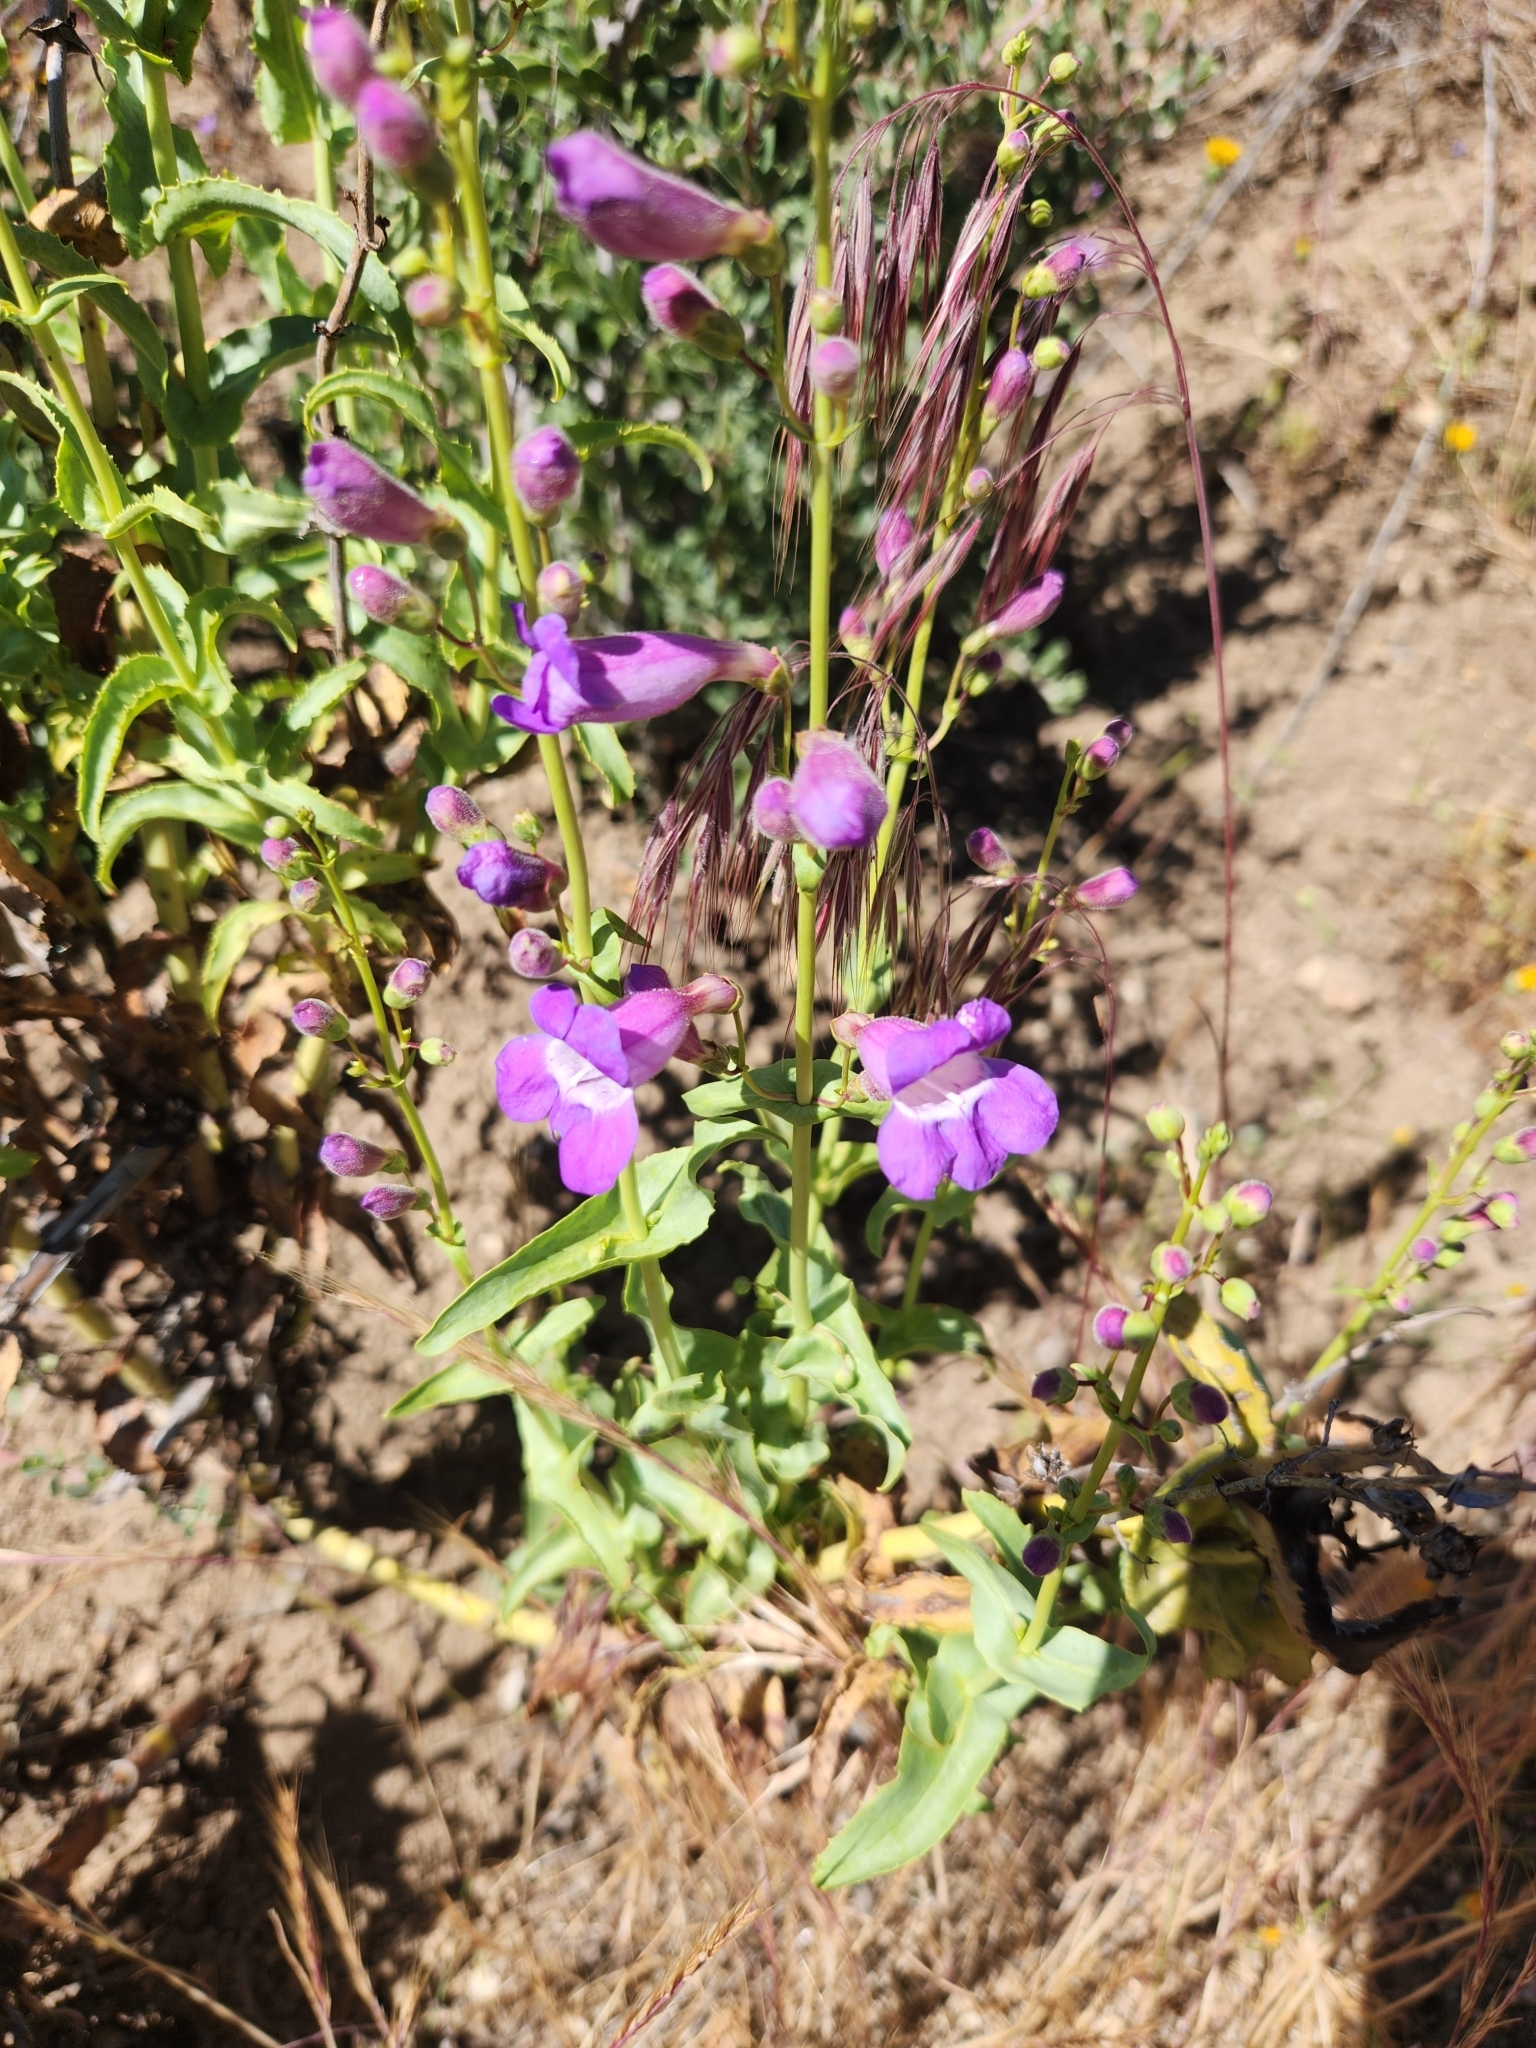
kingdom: Plantae
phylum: Tracheophyta
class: Magnoliopsida
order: Lamiales
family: Plantaginaceae
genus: Penstemon
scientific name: Penstemon spectabilis
